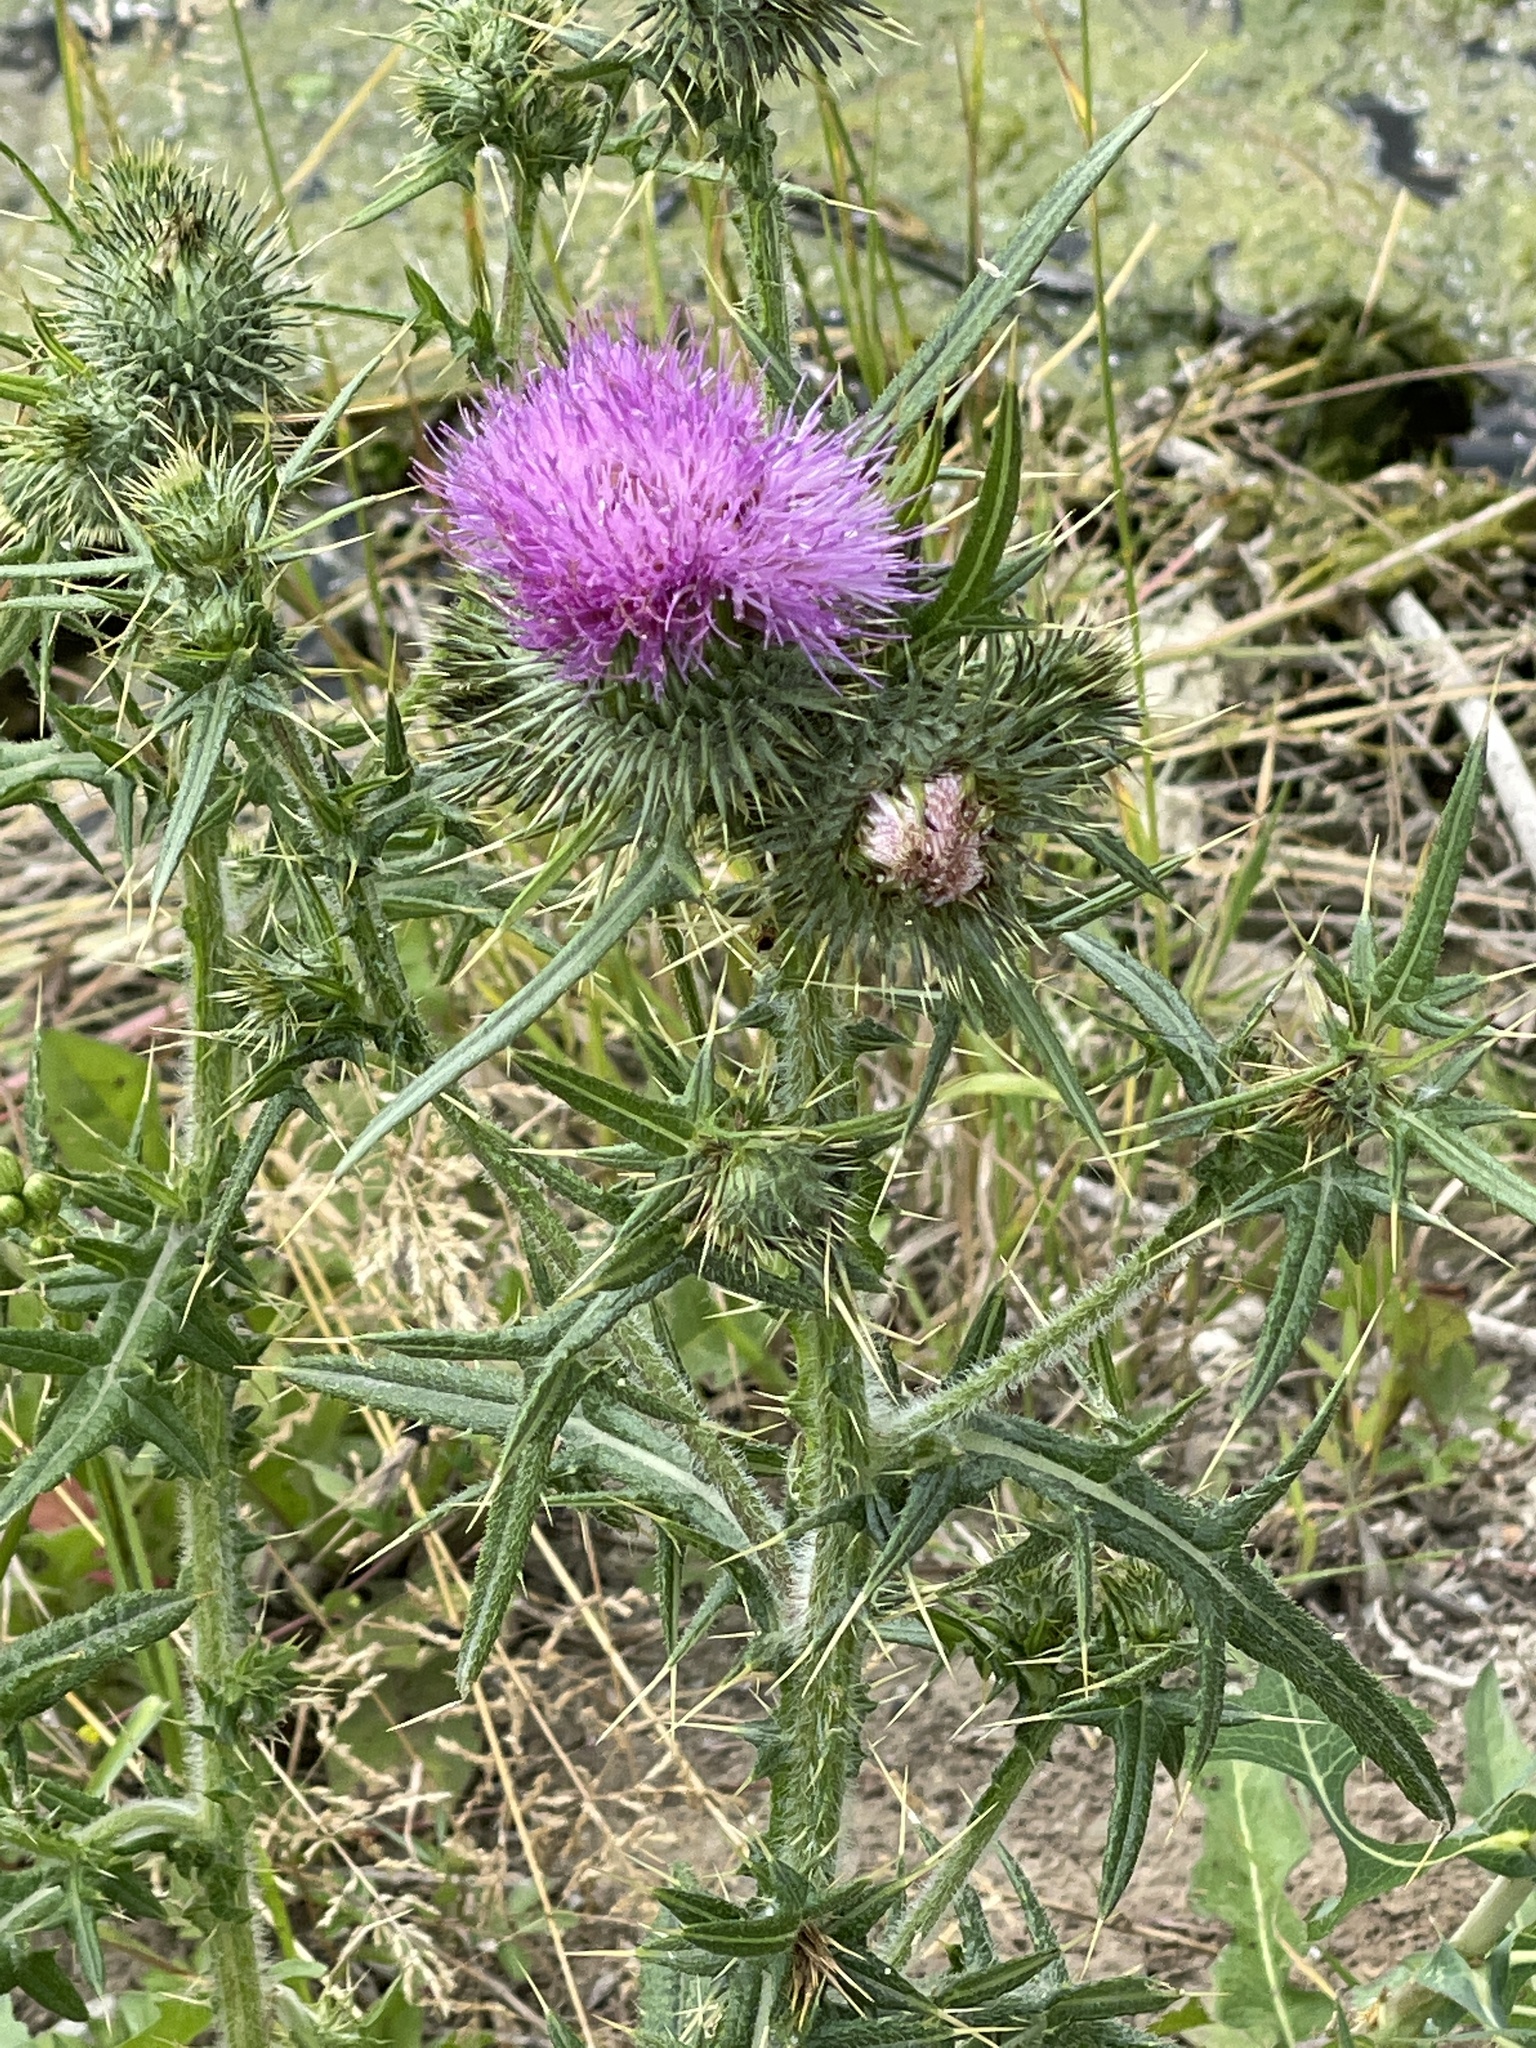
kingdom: Plantae
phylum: Tracheophyta
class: Magnoliopsida
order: Asterales
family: Asteraceae
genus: Cirsium
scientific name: Cirsium vulgare
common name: Bull thistle
